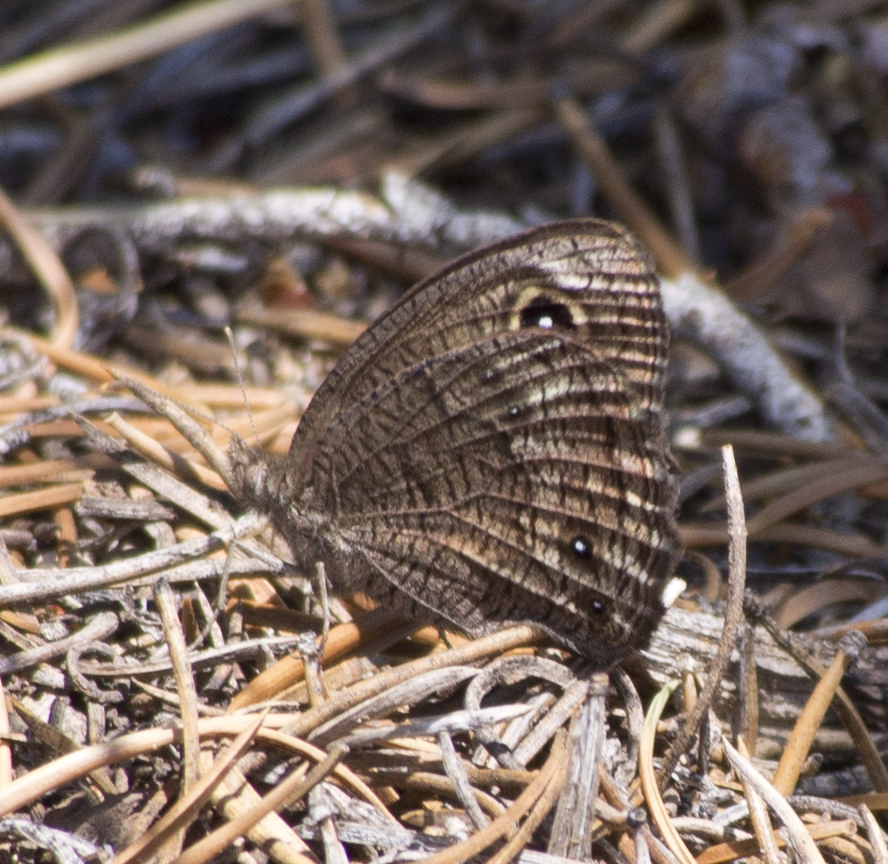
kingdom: Animalia
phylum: Arthropoda
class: Insecta
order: Lepidoptera
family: Nymphalidae
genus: Cercyonis
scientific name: Cercyonis sthenele
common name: Great basin wood-nymph
